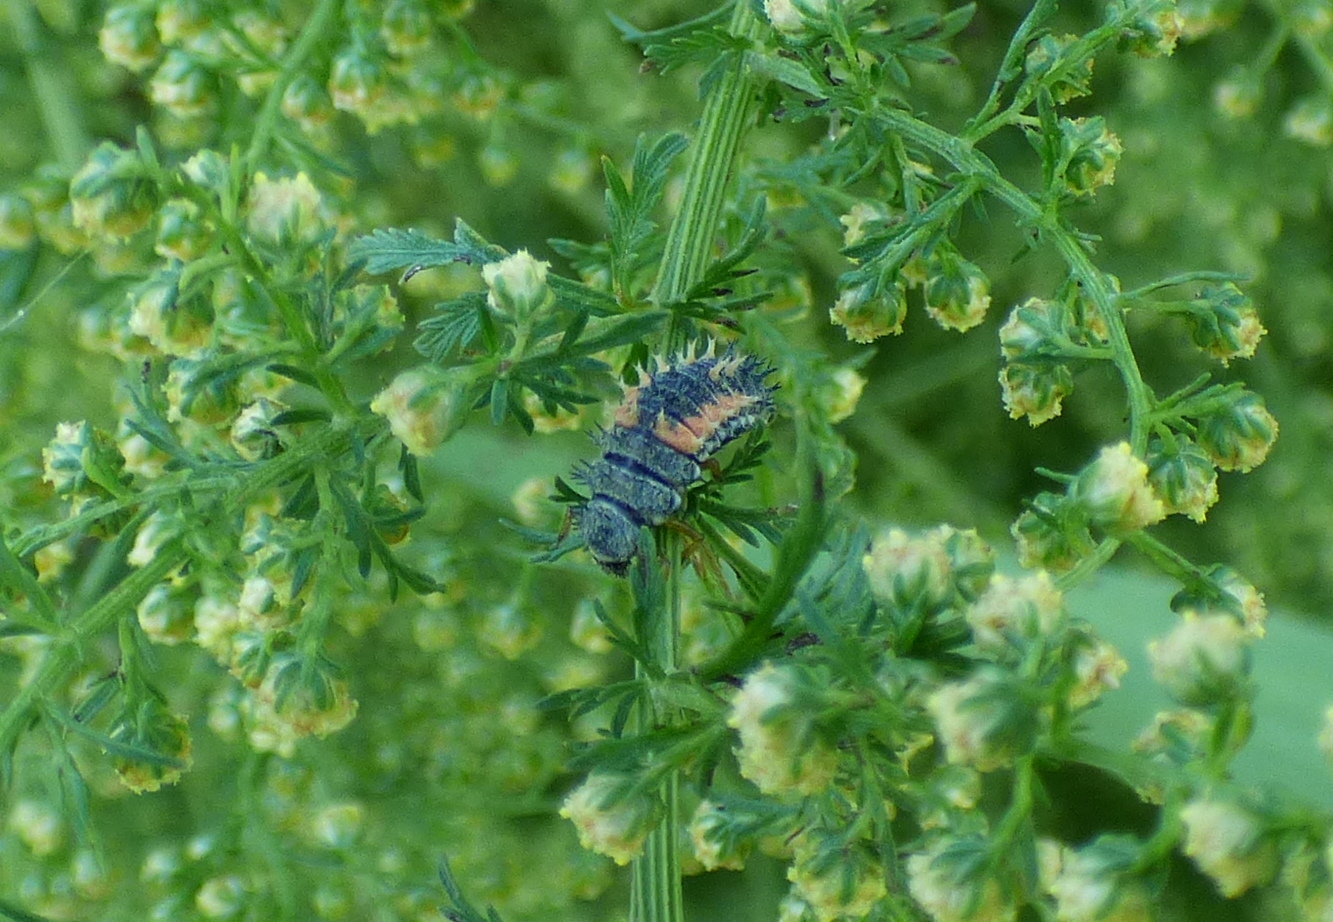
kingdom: Animalia
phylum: Arthropoda
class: Insecta
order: Coleoptera
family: Coccinellidae
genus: Harmonia
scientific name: Harmonia axyridis
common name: Harlequin ladybird
